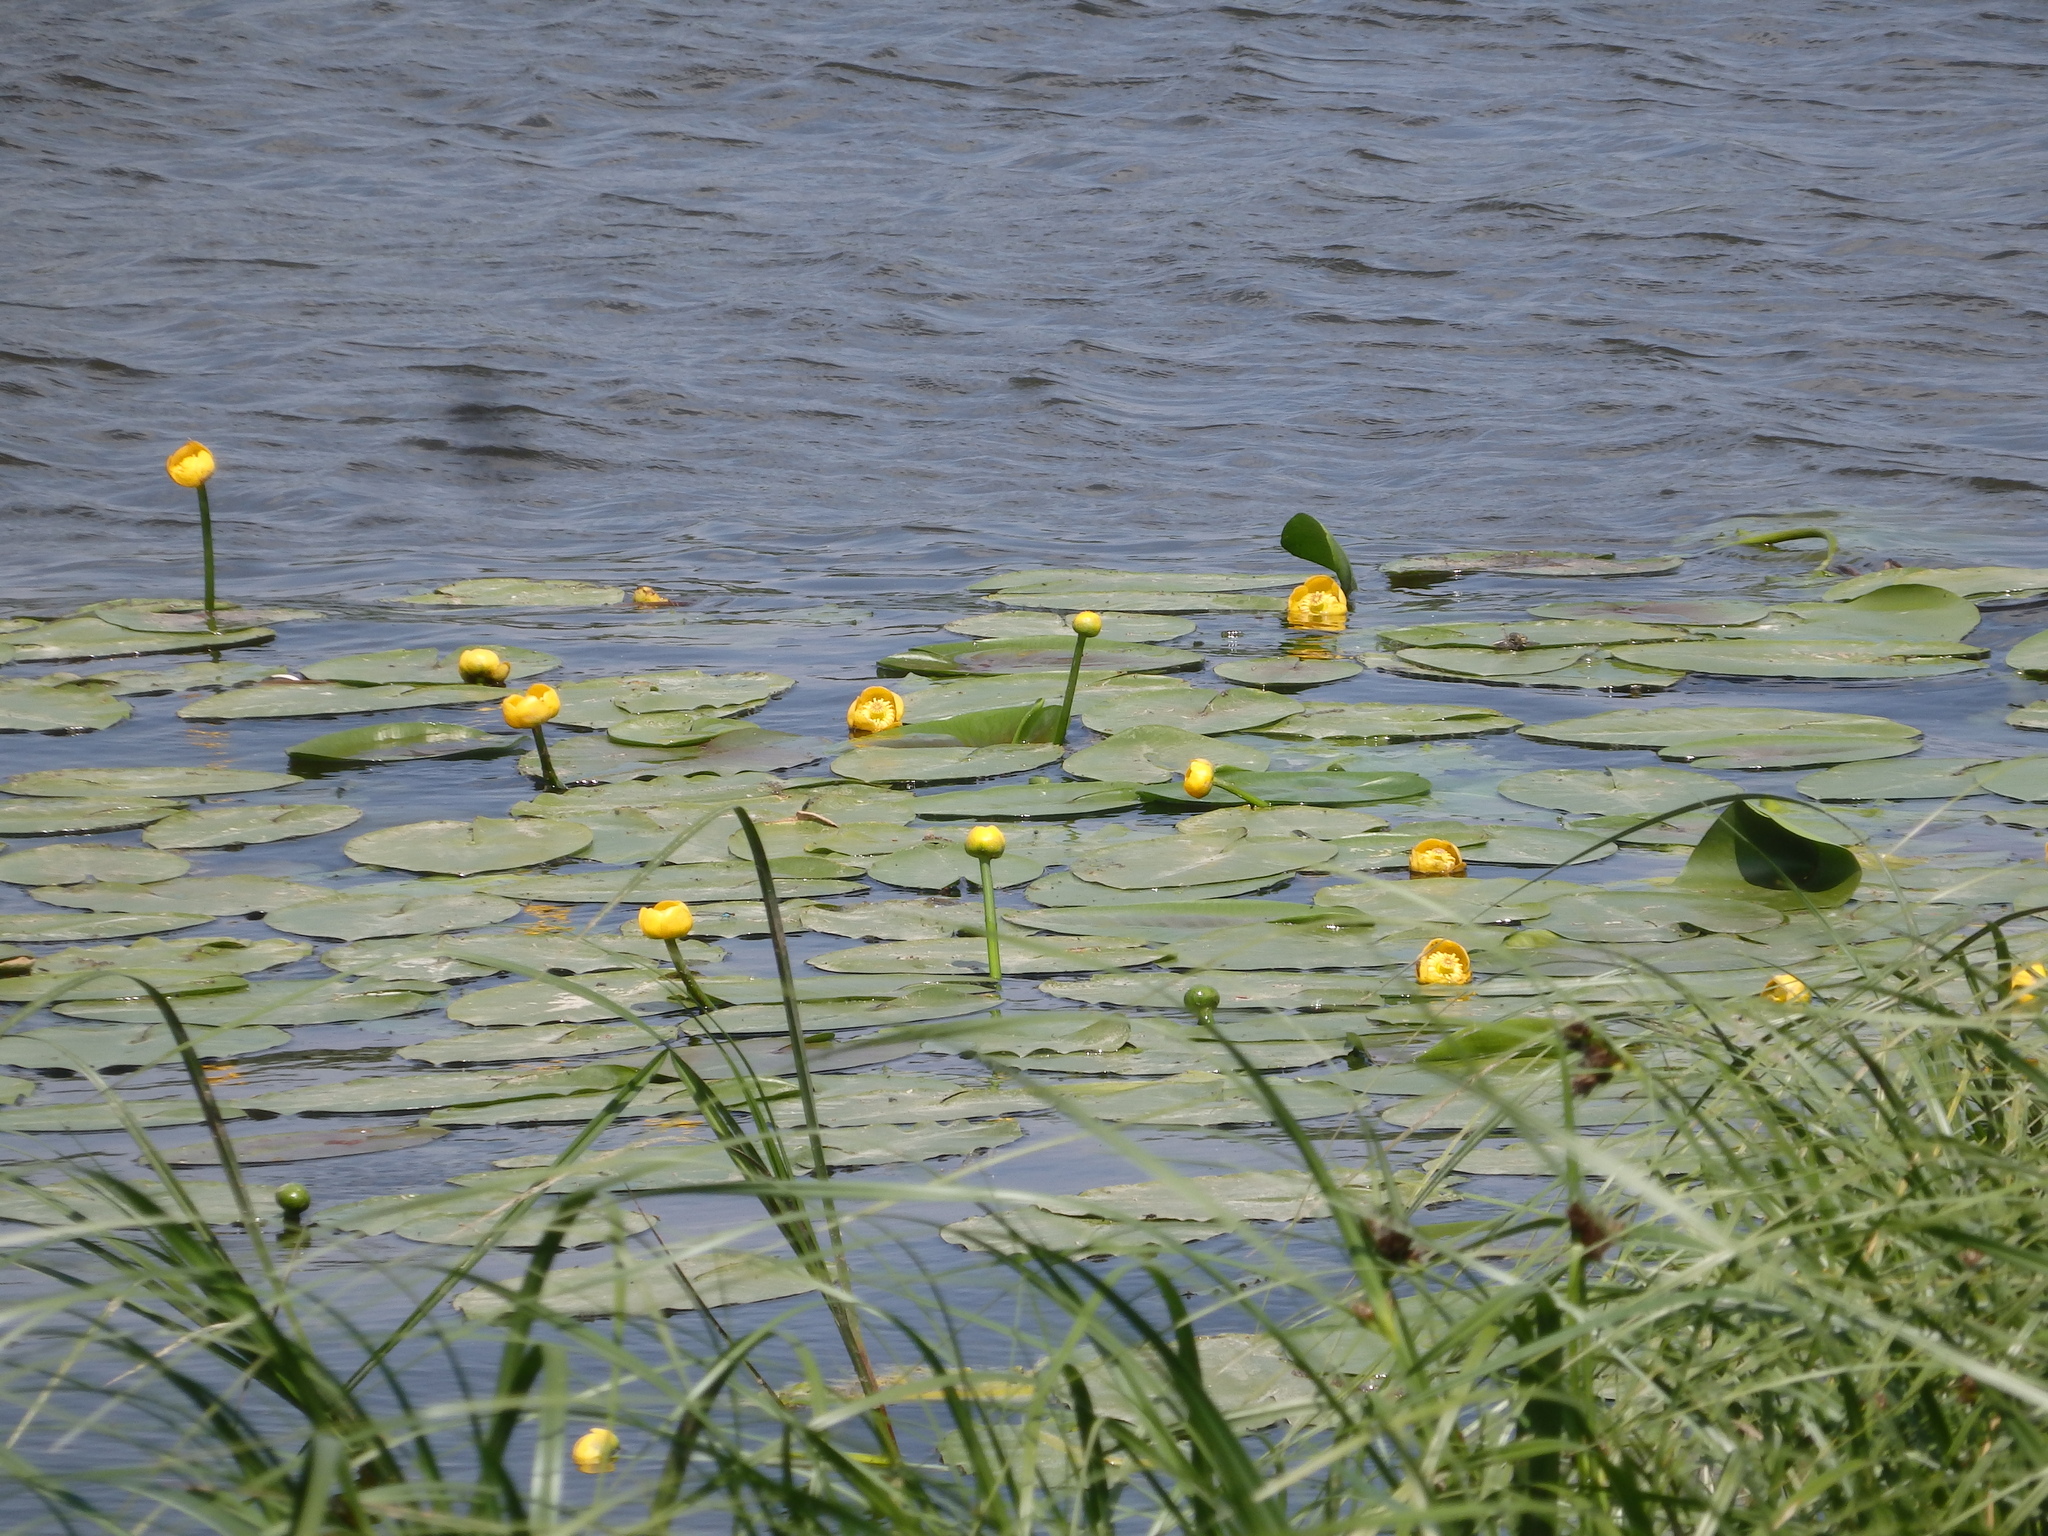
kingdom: Plantae
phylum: Tracheophyta
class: Magnoliopsida
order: Nymphaeales
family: Nymphaeaceae
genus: Nuphar
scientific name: Nuphar lutea
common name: Yellow water-lily
